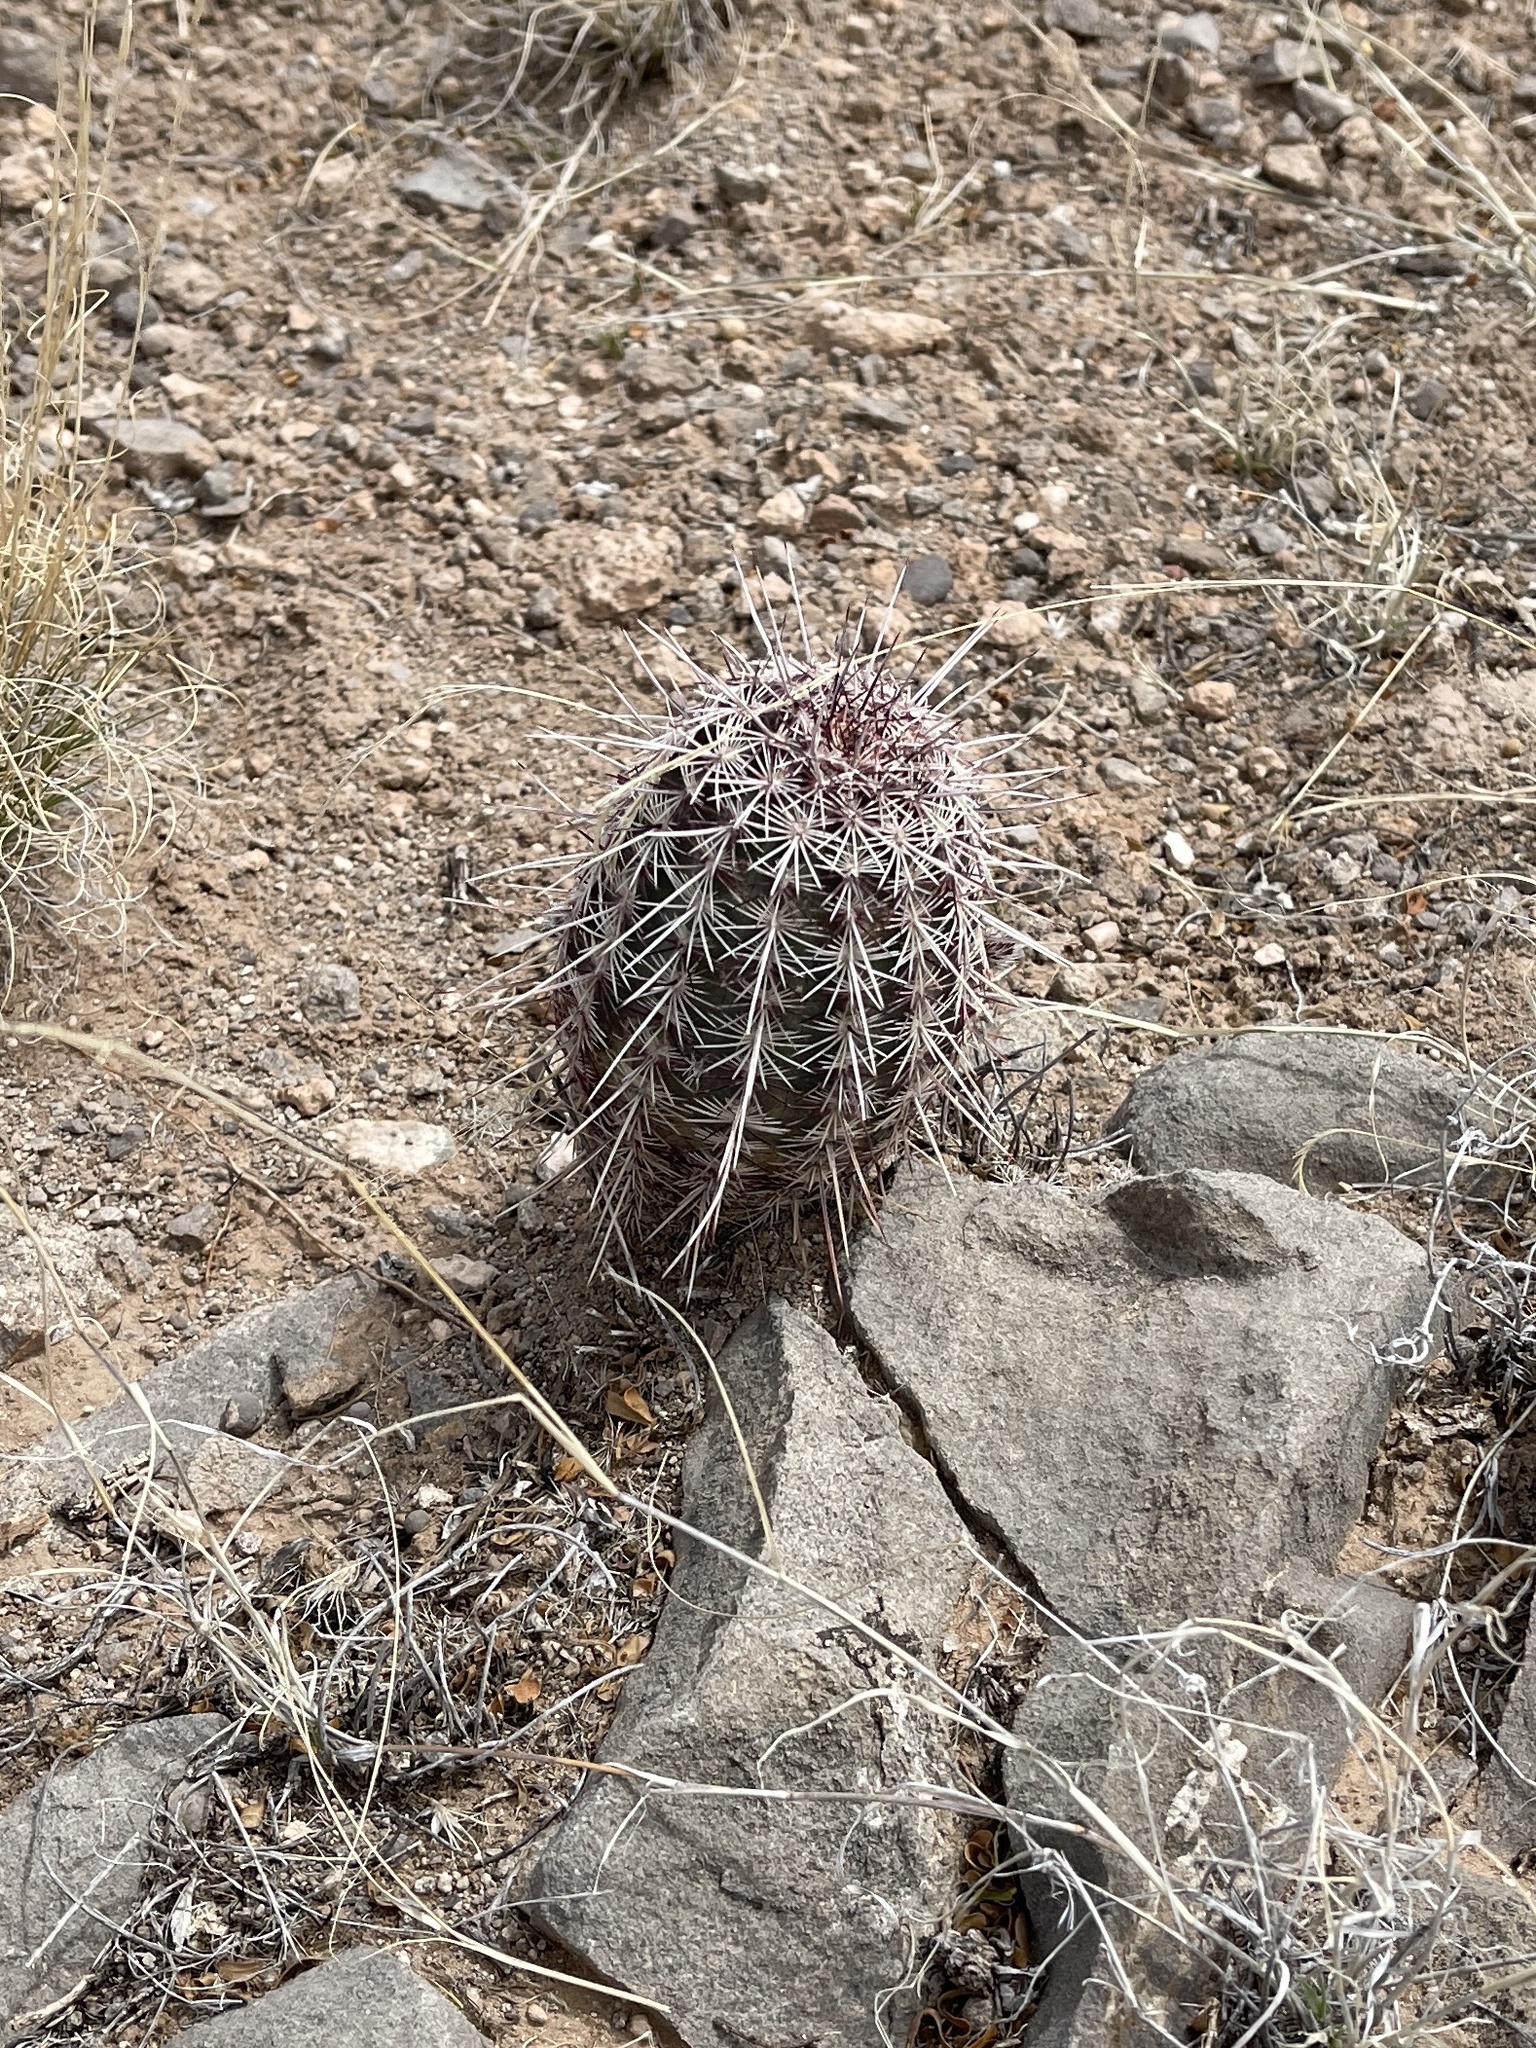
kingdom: Plantae
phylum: Tracheophyta
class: Magnoliopsida
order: Caryophyllales
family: Cactaceae
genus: Echinocereus
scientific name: Echinocereus viridiflorus
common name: Nylon hedgehog cactus
